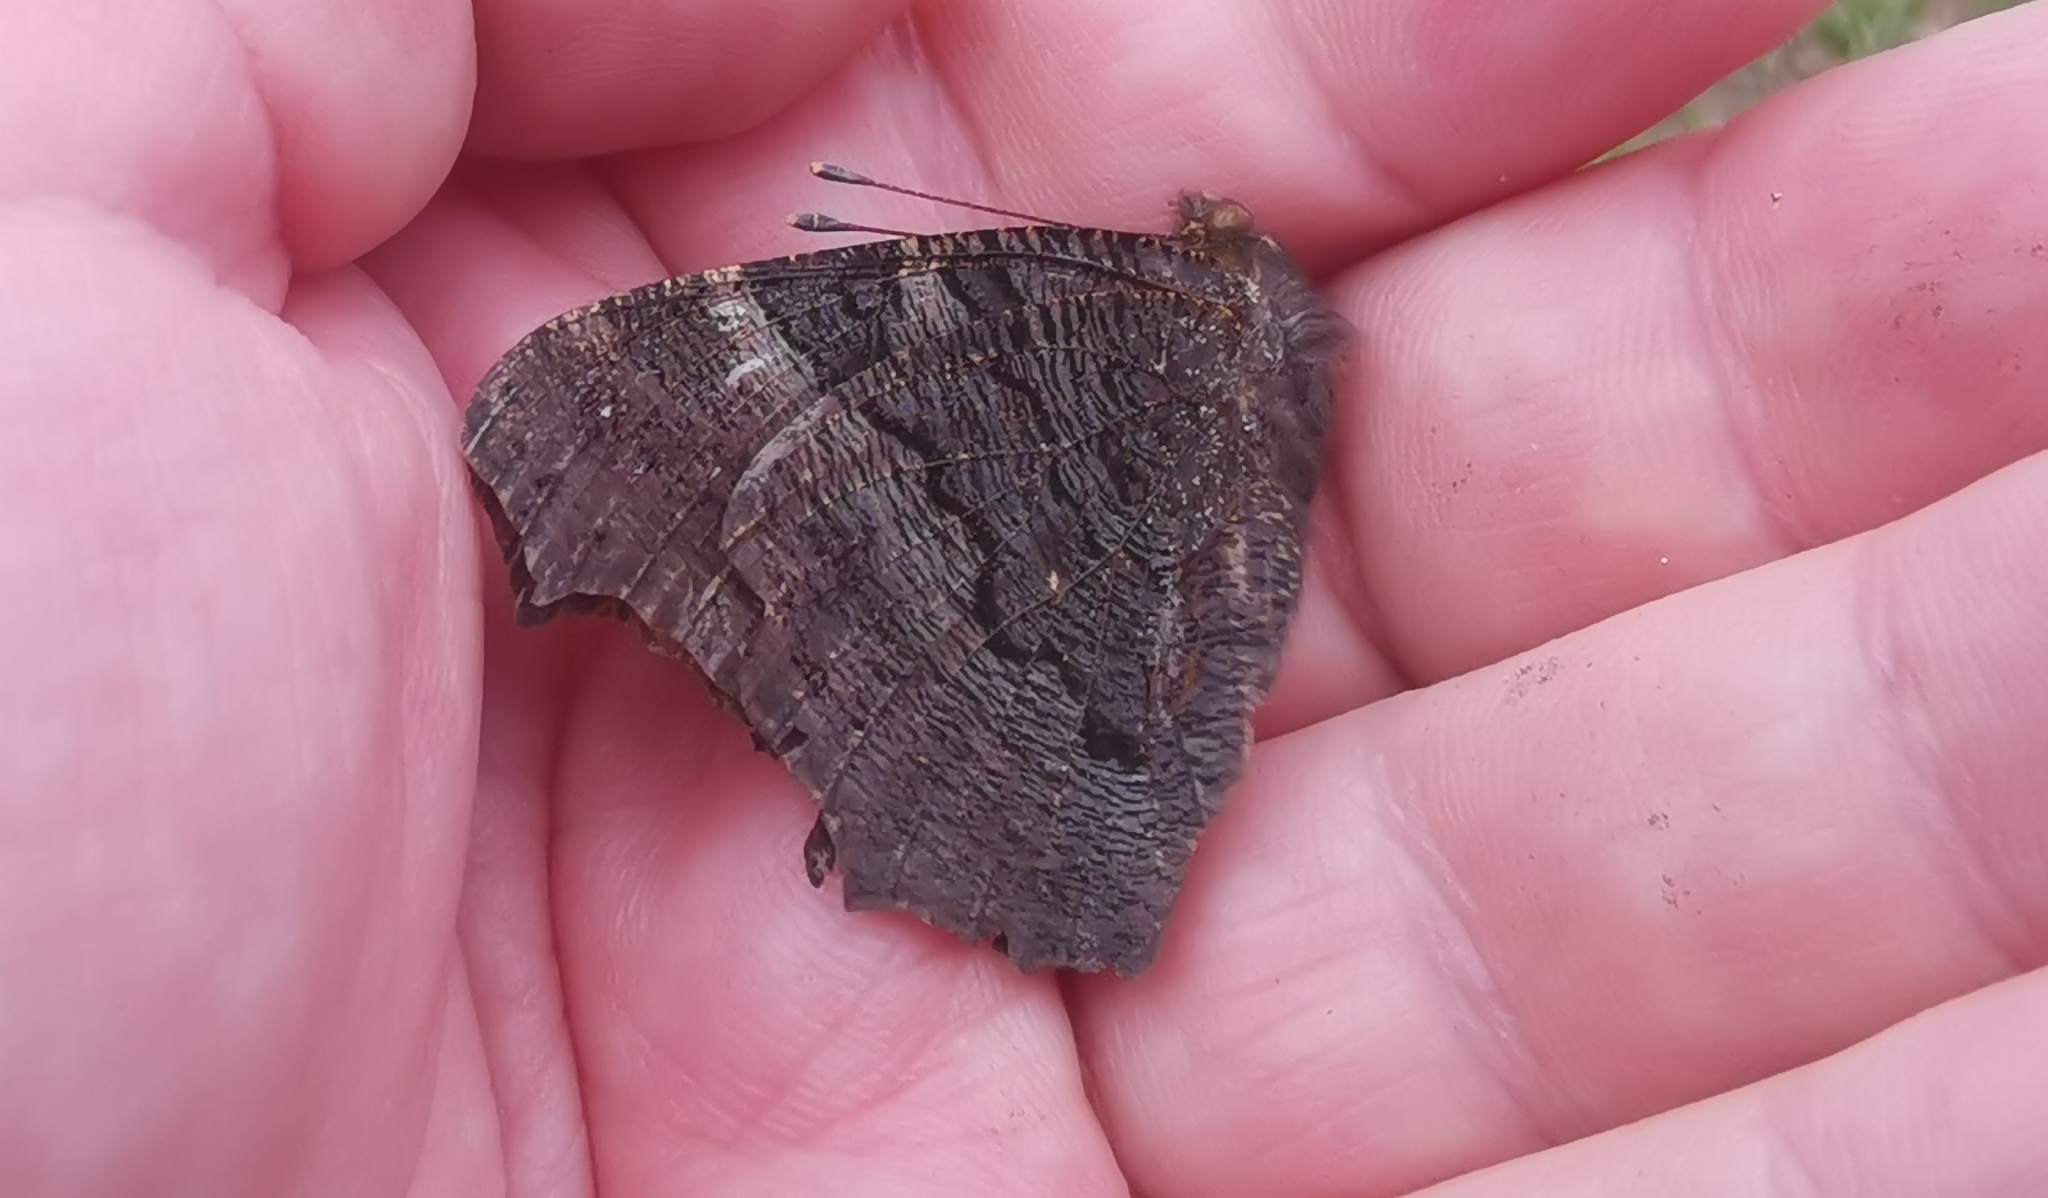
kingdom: Animalia
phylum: Arthropoda
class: Insecta
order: Lepidoptera
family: Nymphalidae
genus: Aglais
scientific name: Aglais io
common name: Peacock
